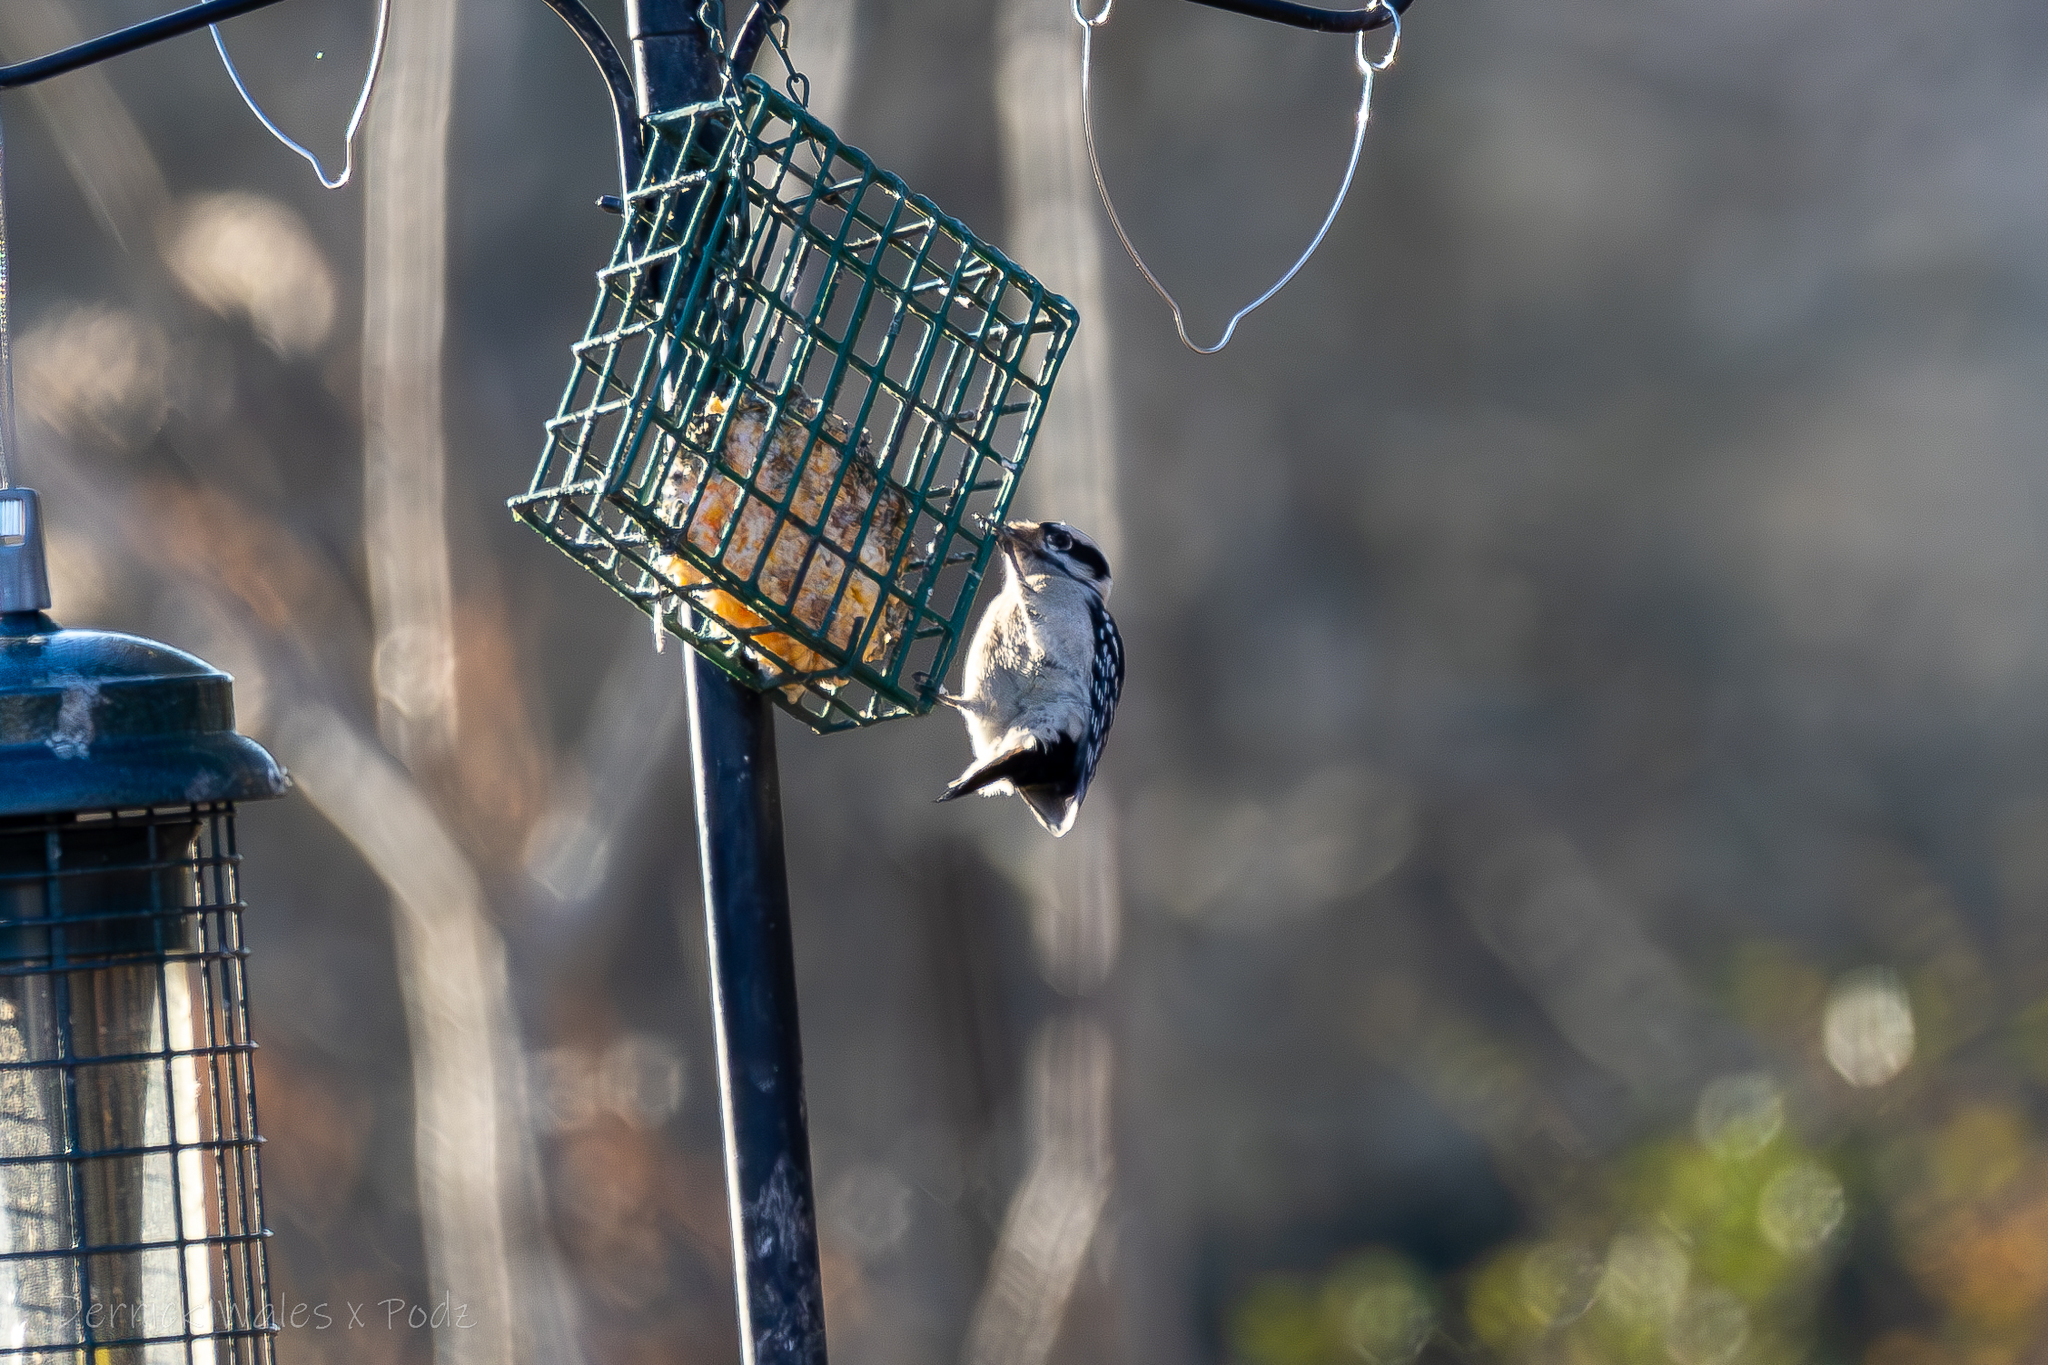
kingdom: Animalia
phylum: Chordata
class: Aves
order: Piciformes
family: Picidae
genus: Dryobates
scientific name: Dryobates pubescens
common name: Downy woodpecker
